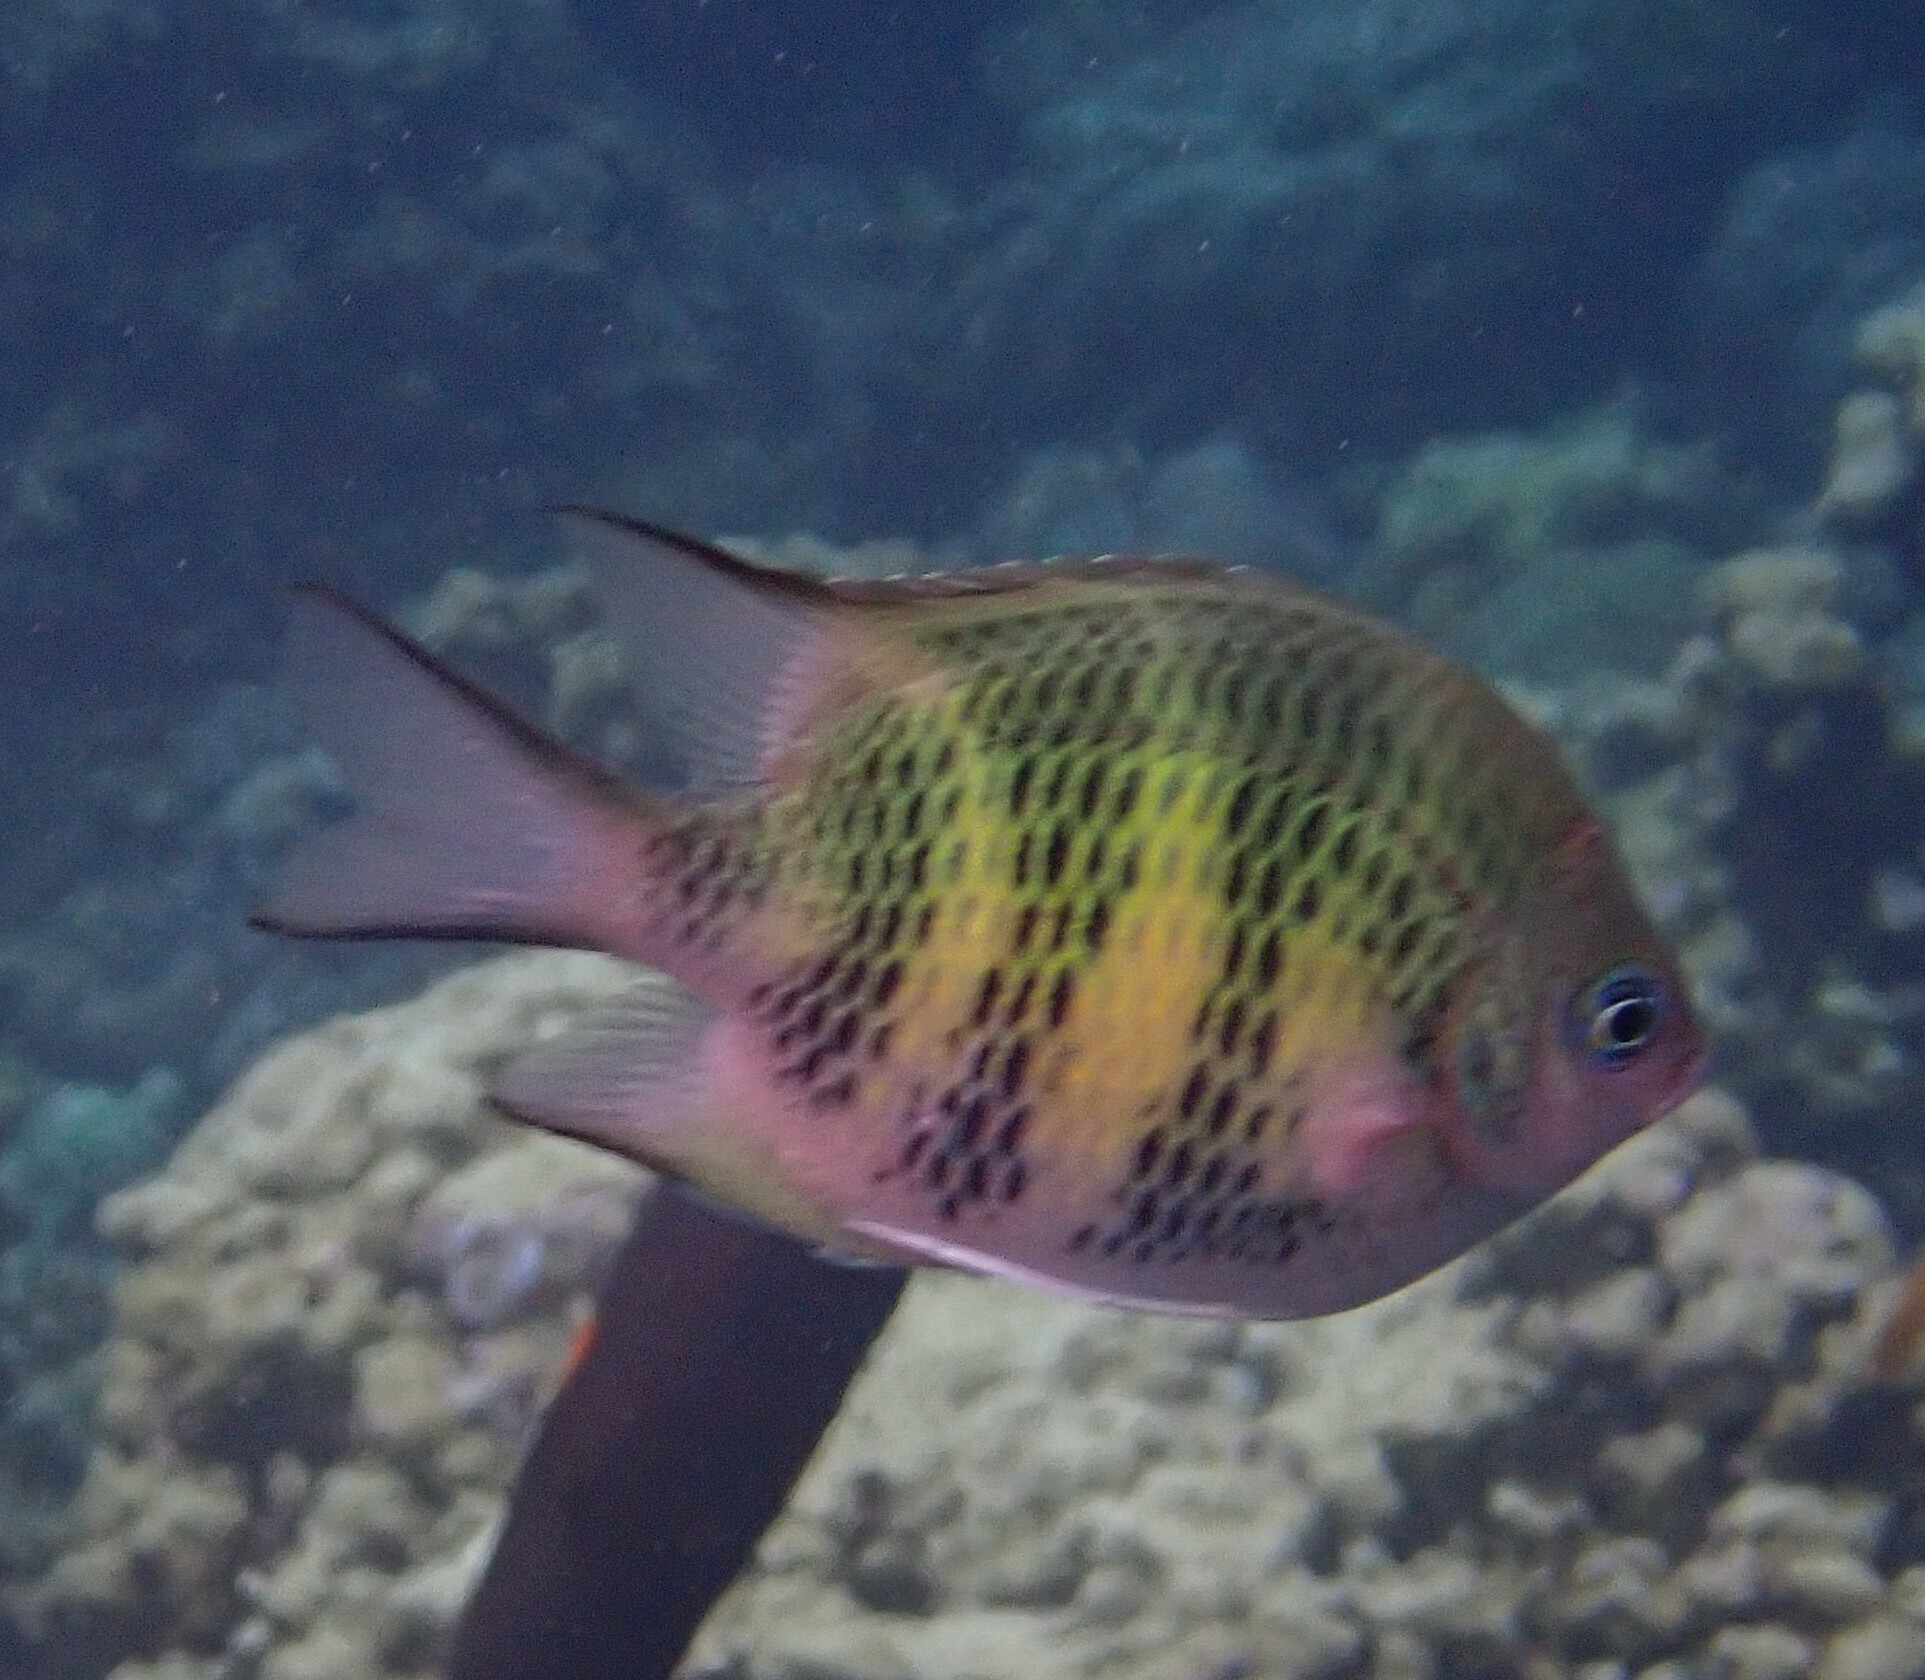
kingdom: Animalia
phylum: Chordata
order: Perciformes
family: Pomacentridae
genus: Amblyglyphidodon
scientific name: Amblyglyphidodon curacao
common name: Staghorn damsel
